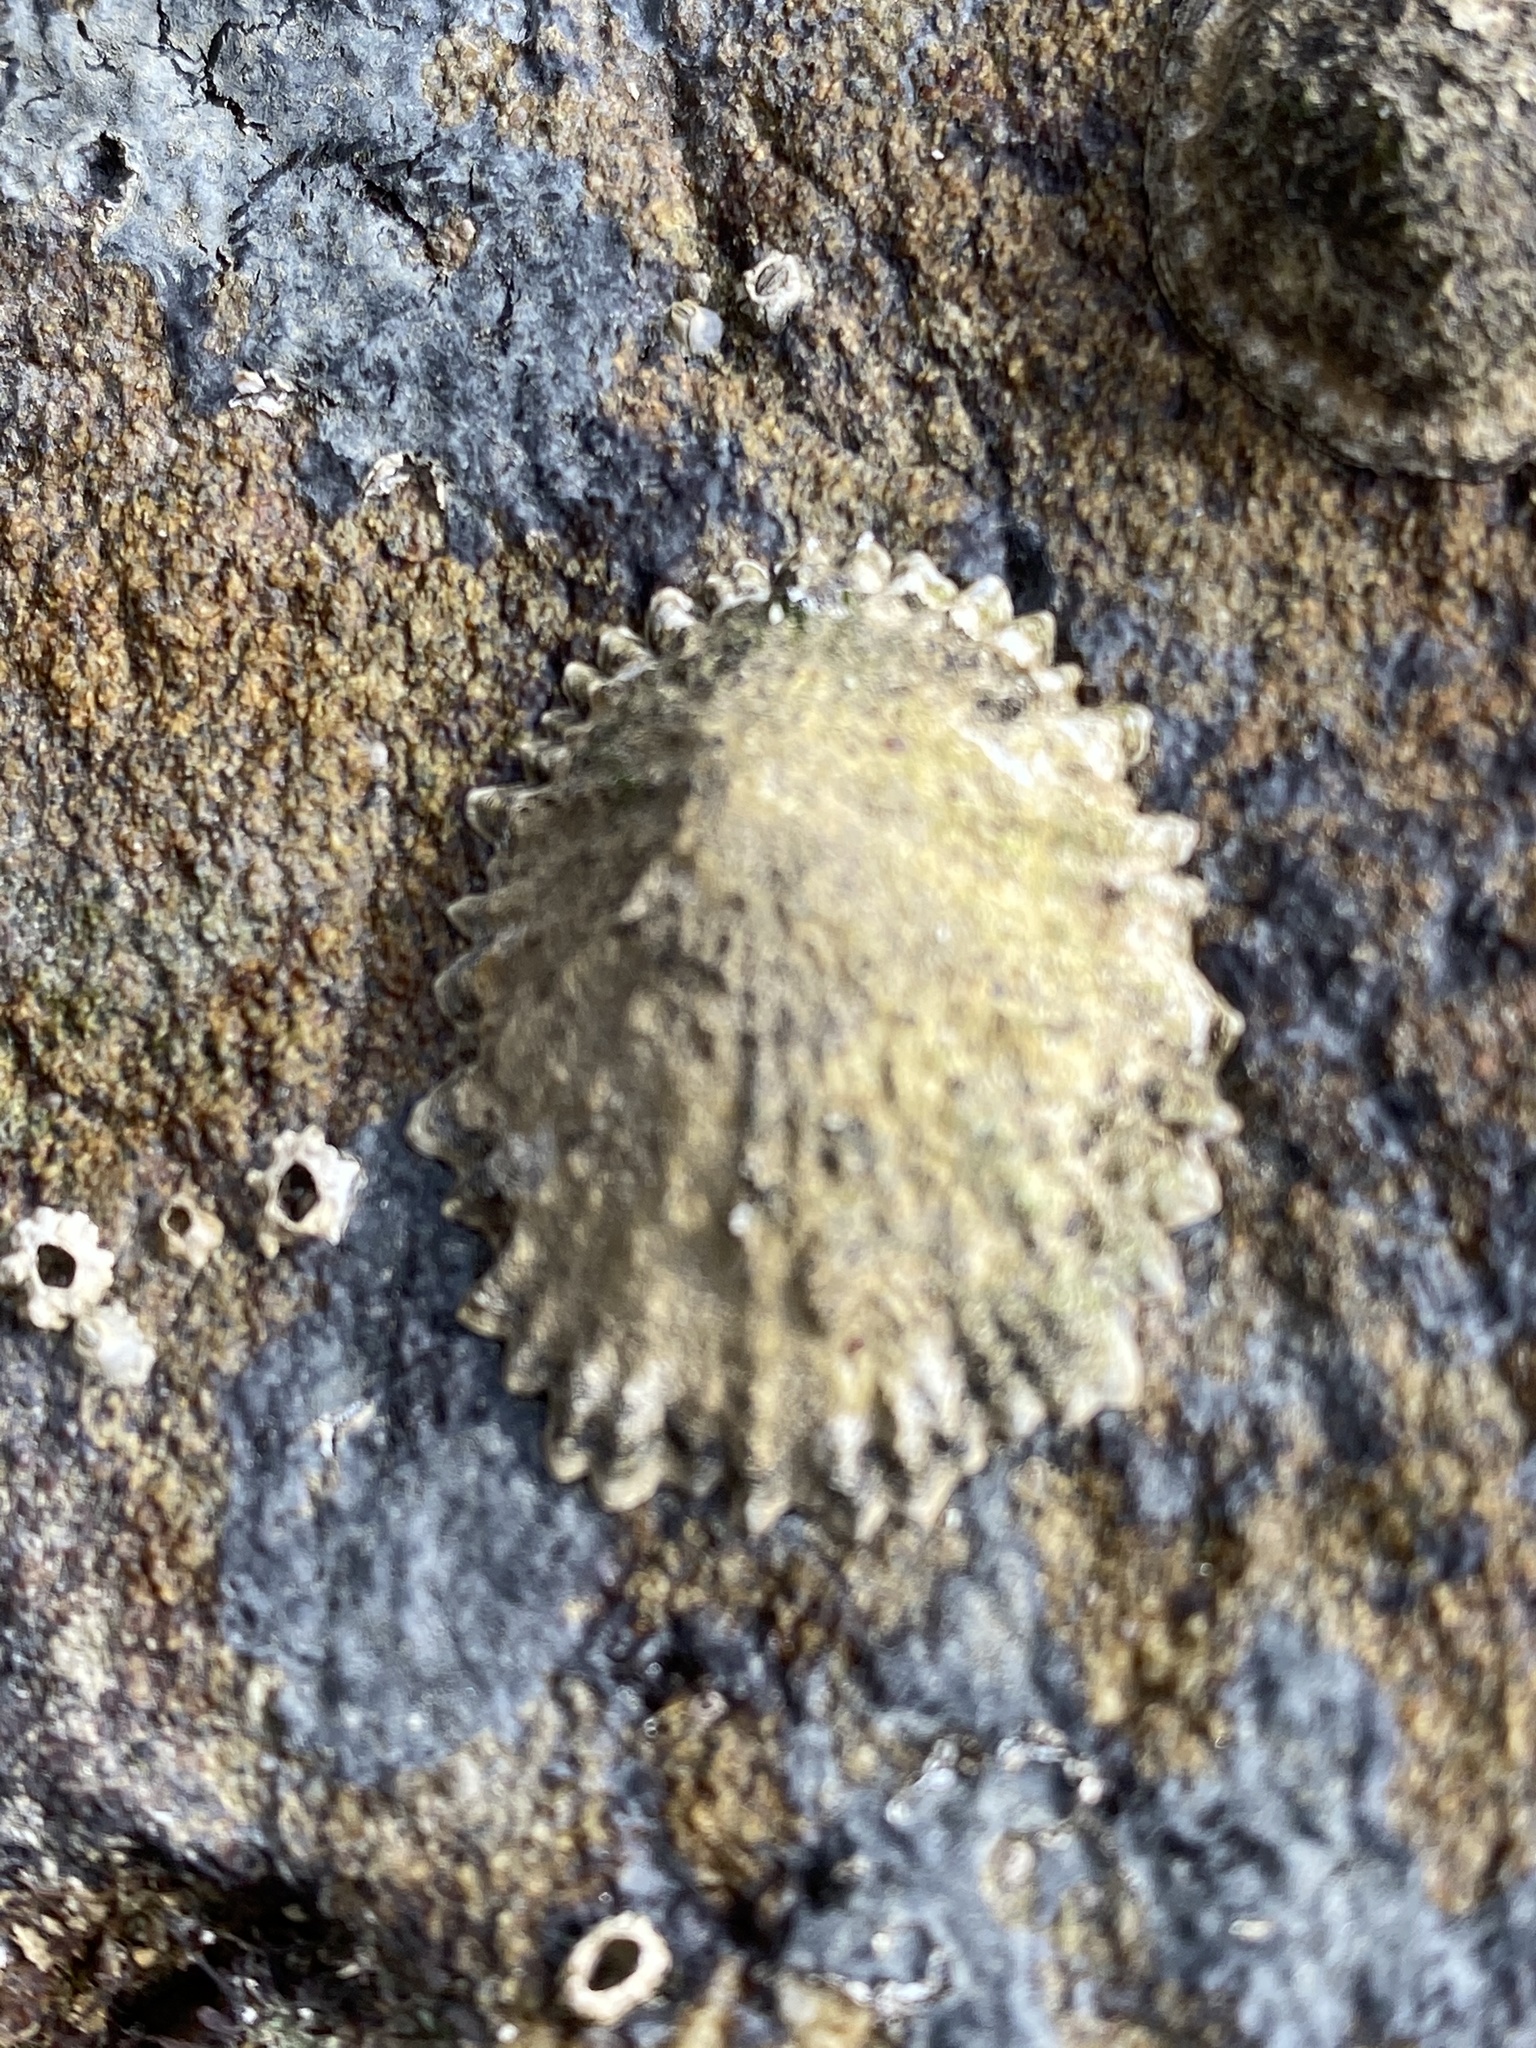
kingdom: Animalia
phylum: Mollusca
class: Gastropoda
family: Lottiidae
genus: Lottia
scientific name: Lottia scabra
